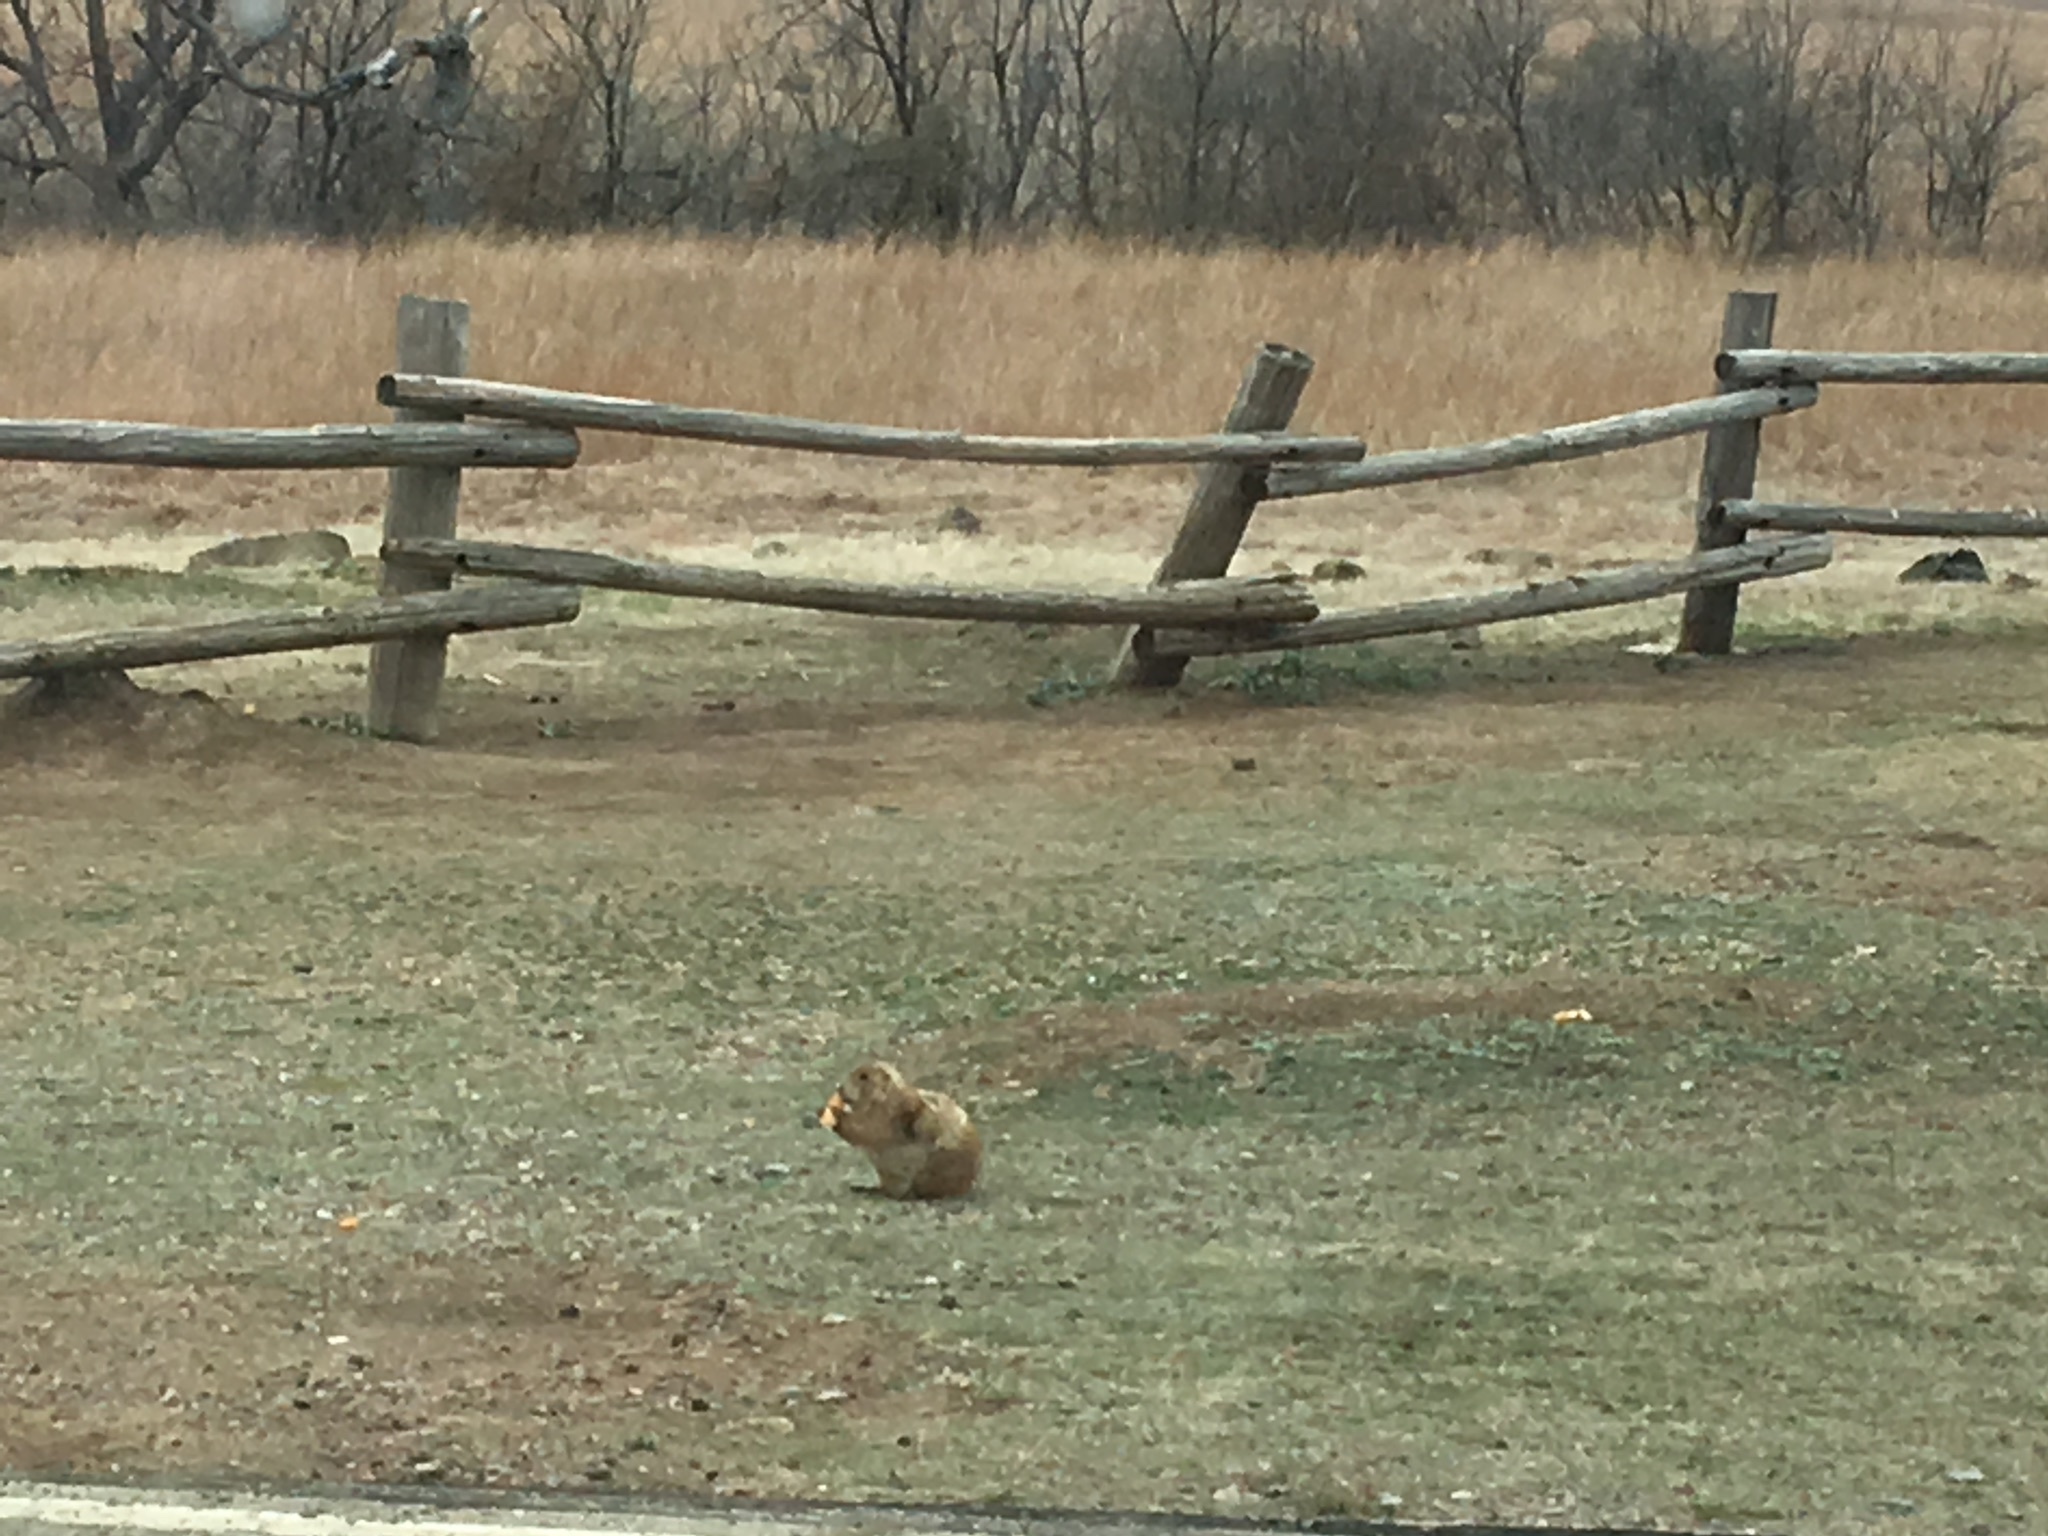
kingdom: Animalia
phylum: Chordata
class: Mammalia
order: Rodentia
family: Sciuridae
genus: Cynomys
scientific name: Cynomys ludovicianus
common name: Black-tailed prairie dog
